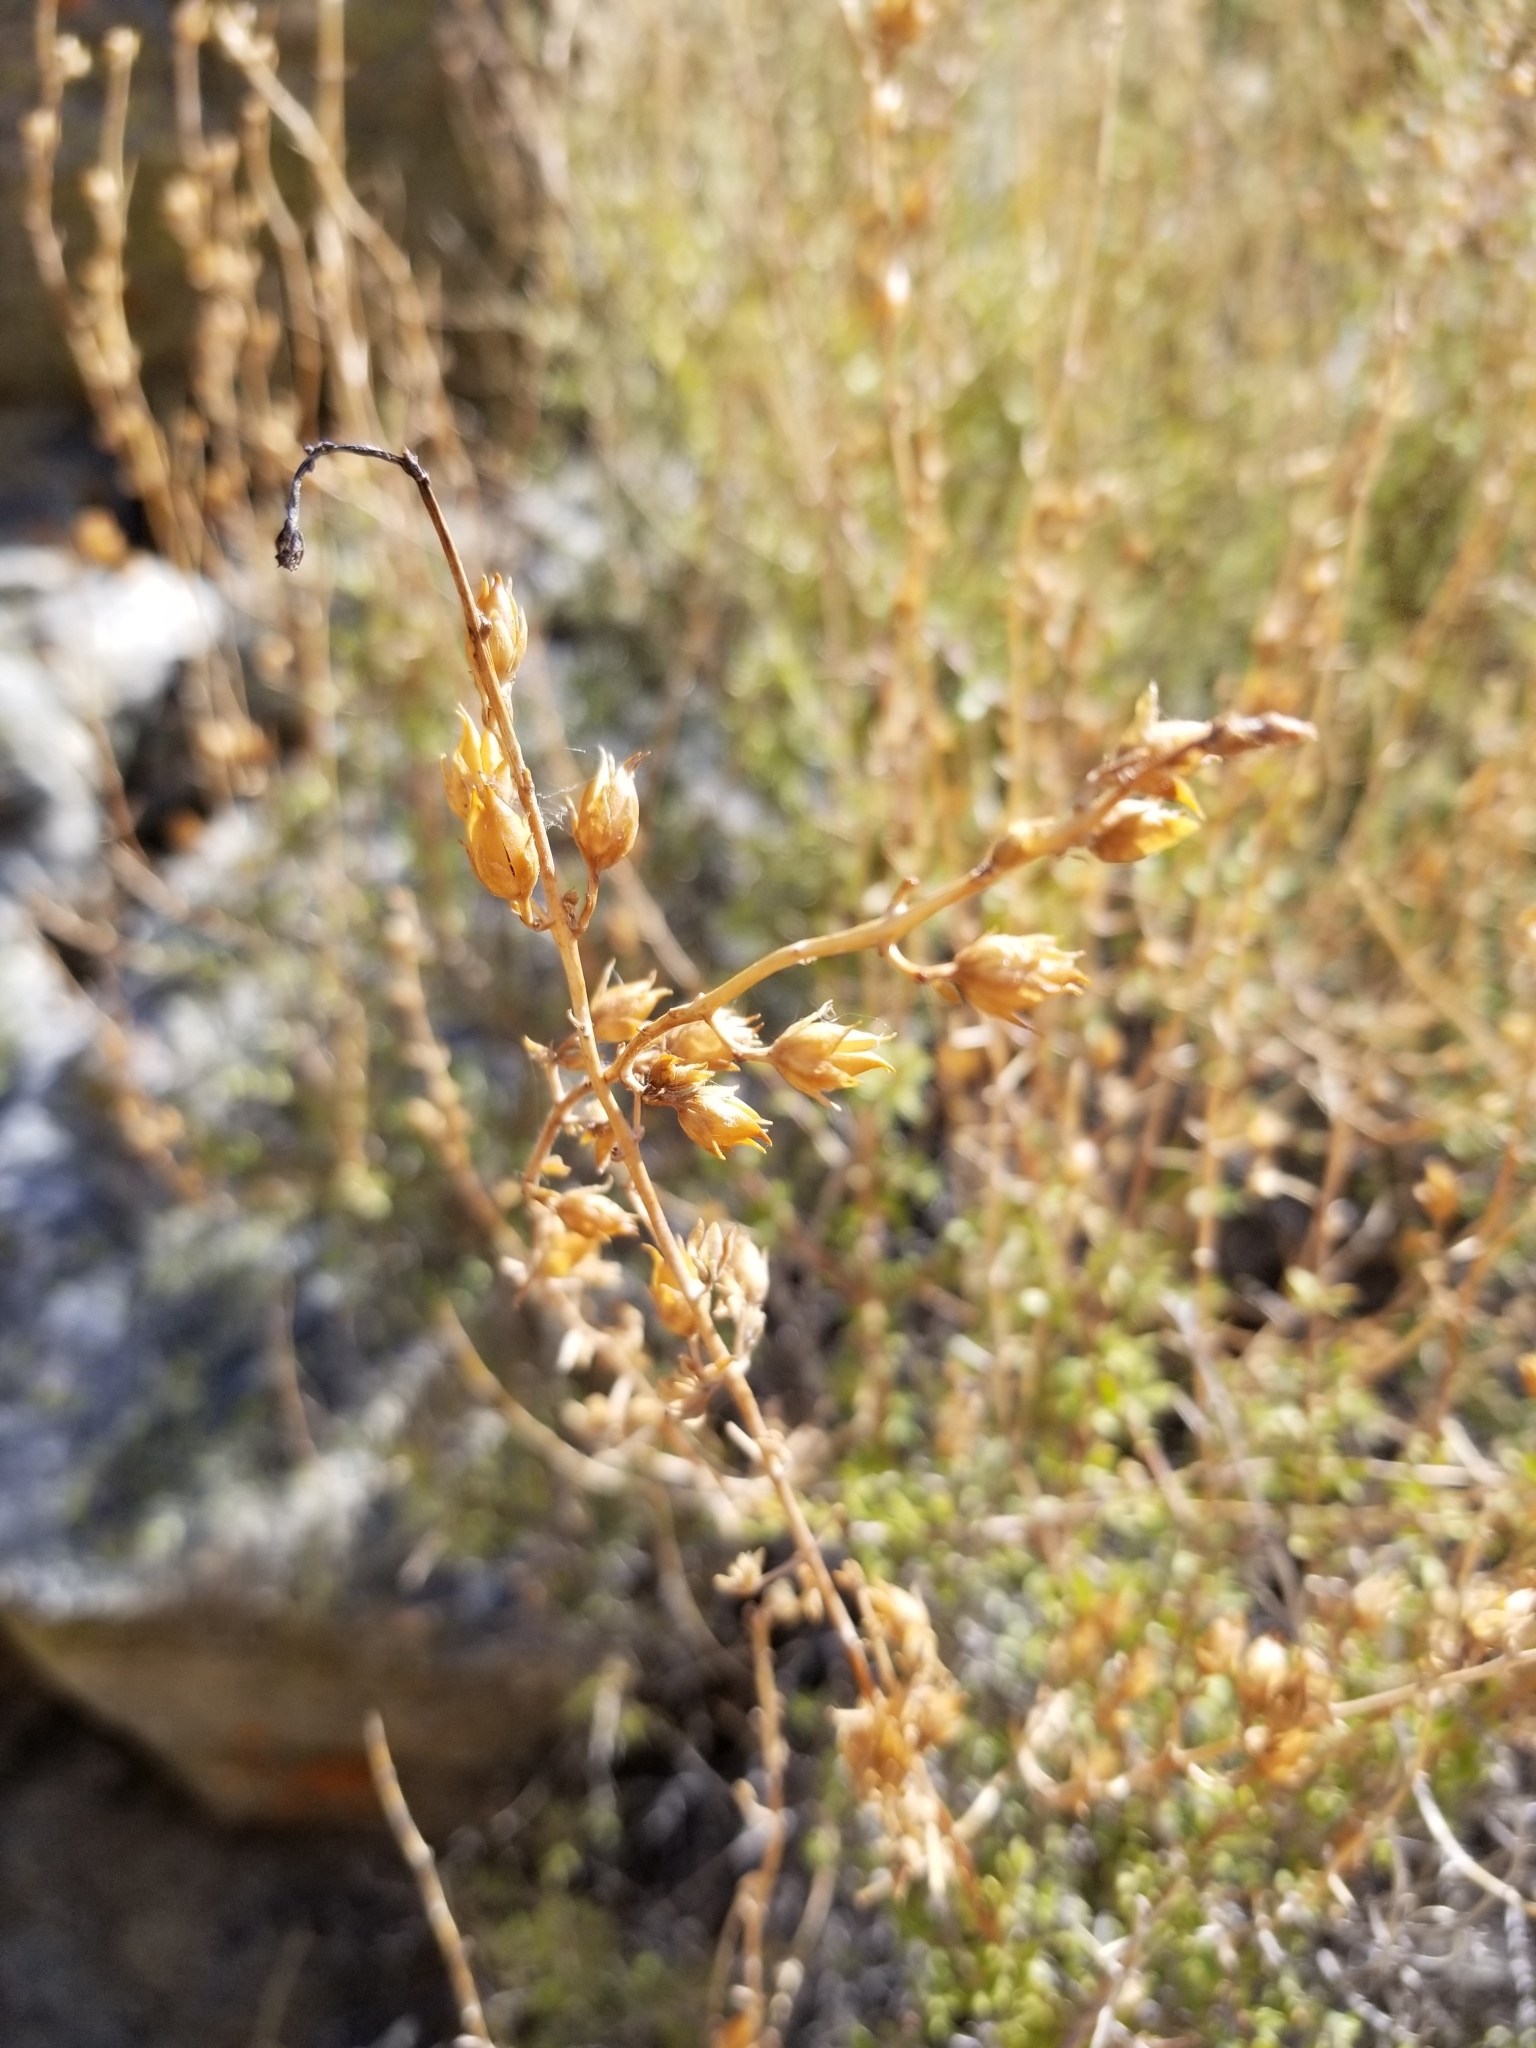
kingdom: Plantae
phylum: Tracheophyta
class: Magnoliopsida
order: Lamiales
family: Plantaginaceae
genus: Keckiella
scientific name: Keckiella antirrhinoides
